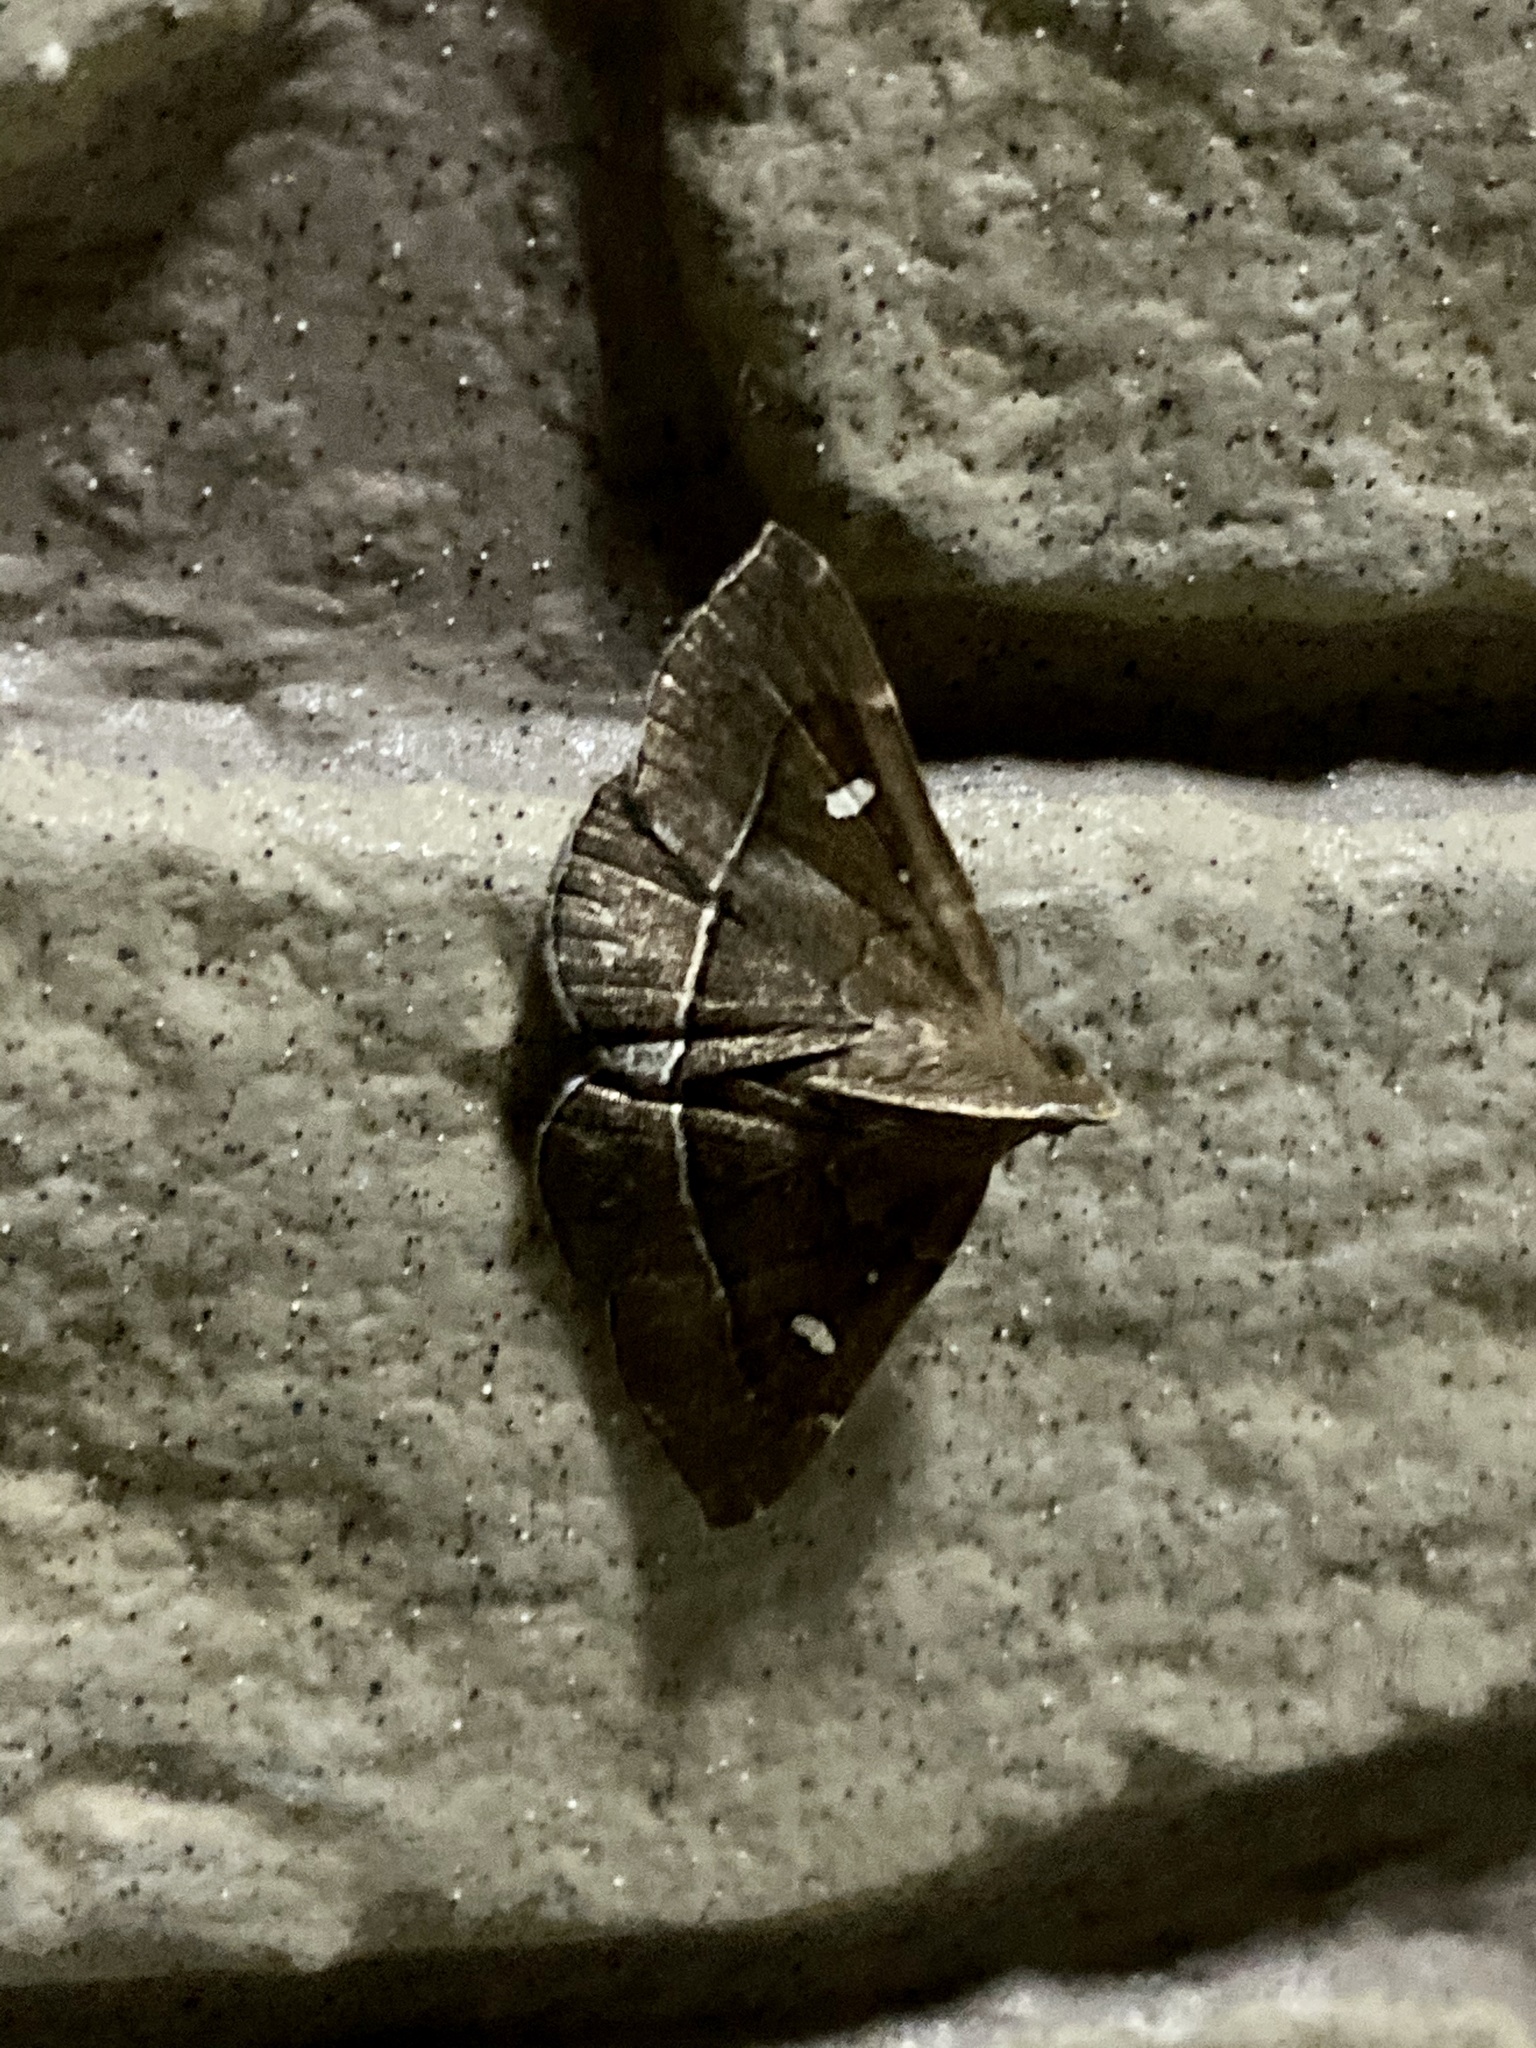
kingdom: Animalia
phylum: Arthropoda
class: Insecta
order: Lepidoptera
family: Erebidae
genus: Cidariplura
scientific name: Cidariplura gladiata
